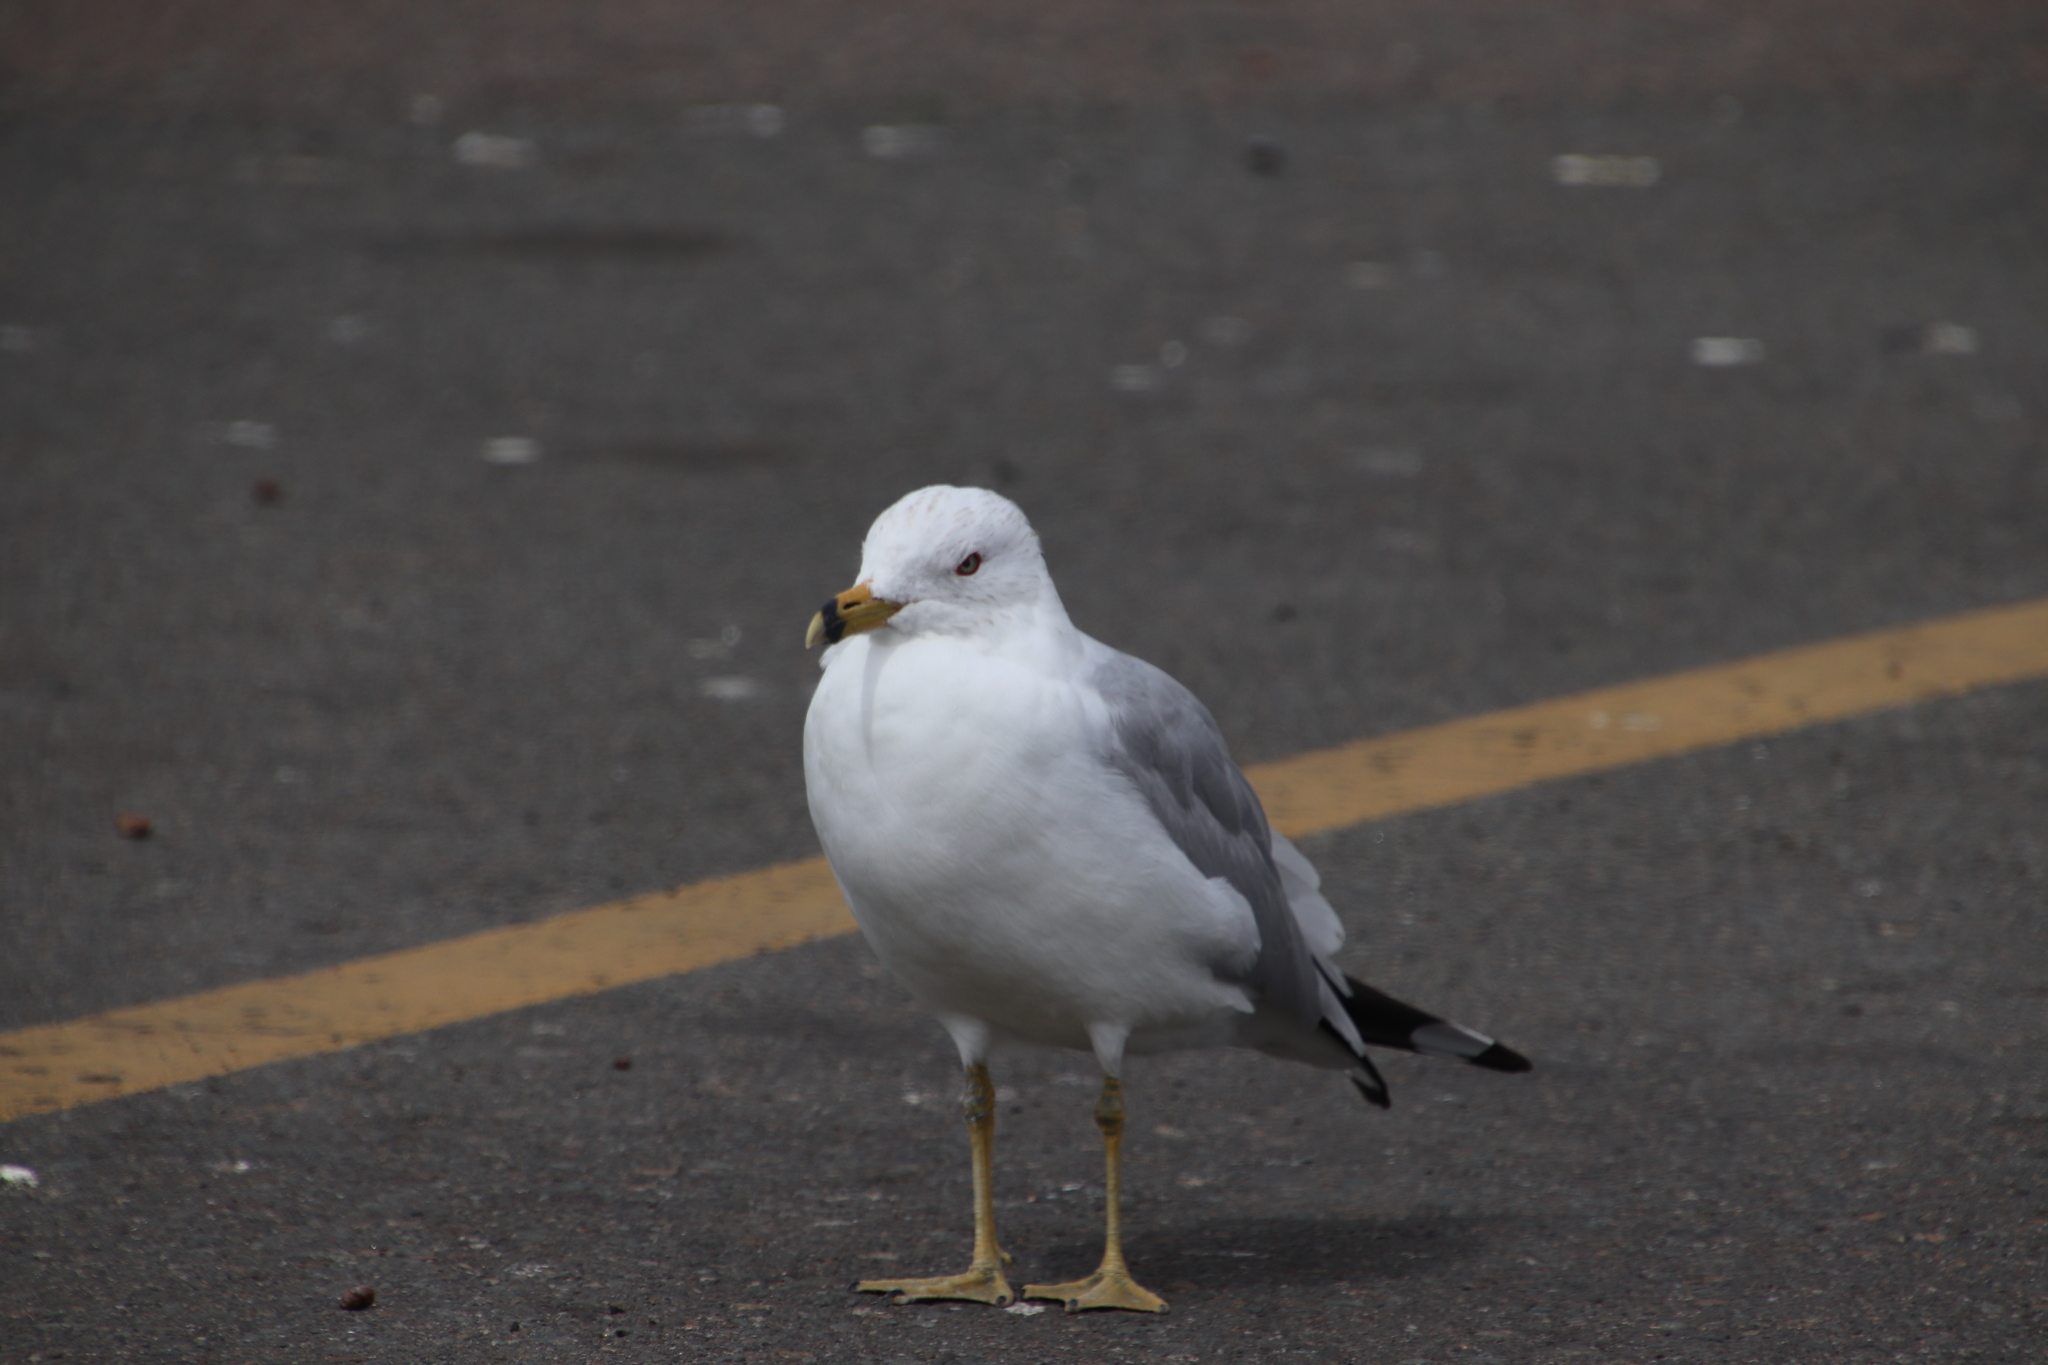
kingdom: Animalia
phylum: Chordata
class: Aves
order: Charadriiformes
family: Laridae
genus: Larus
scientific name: Larus delawarensis
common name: Ring-billed gull
